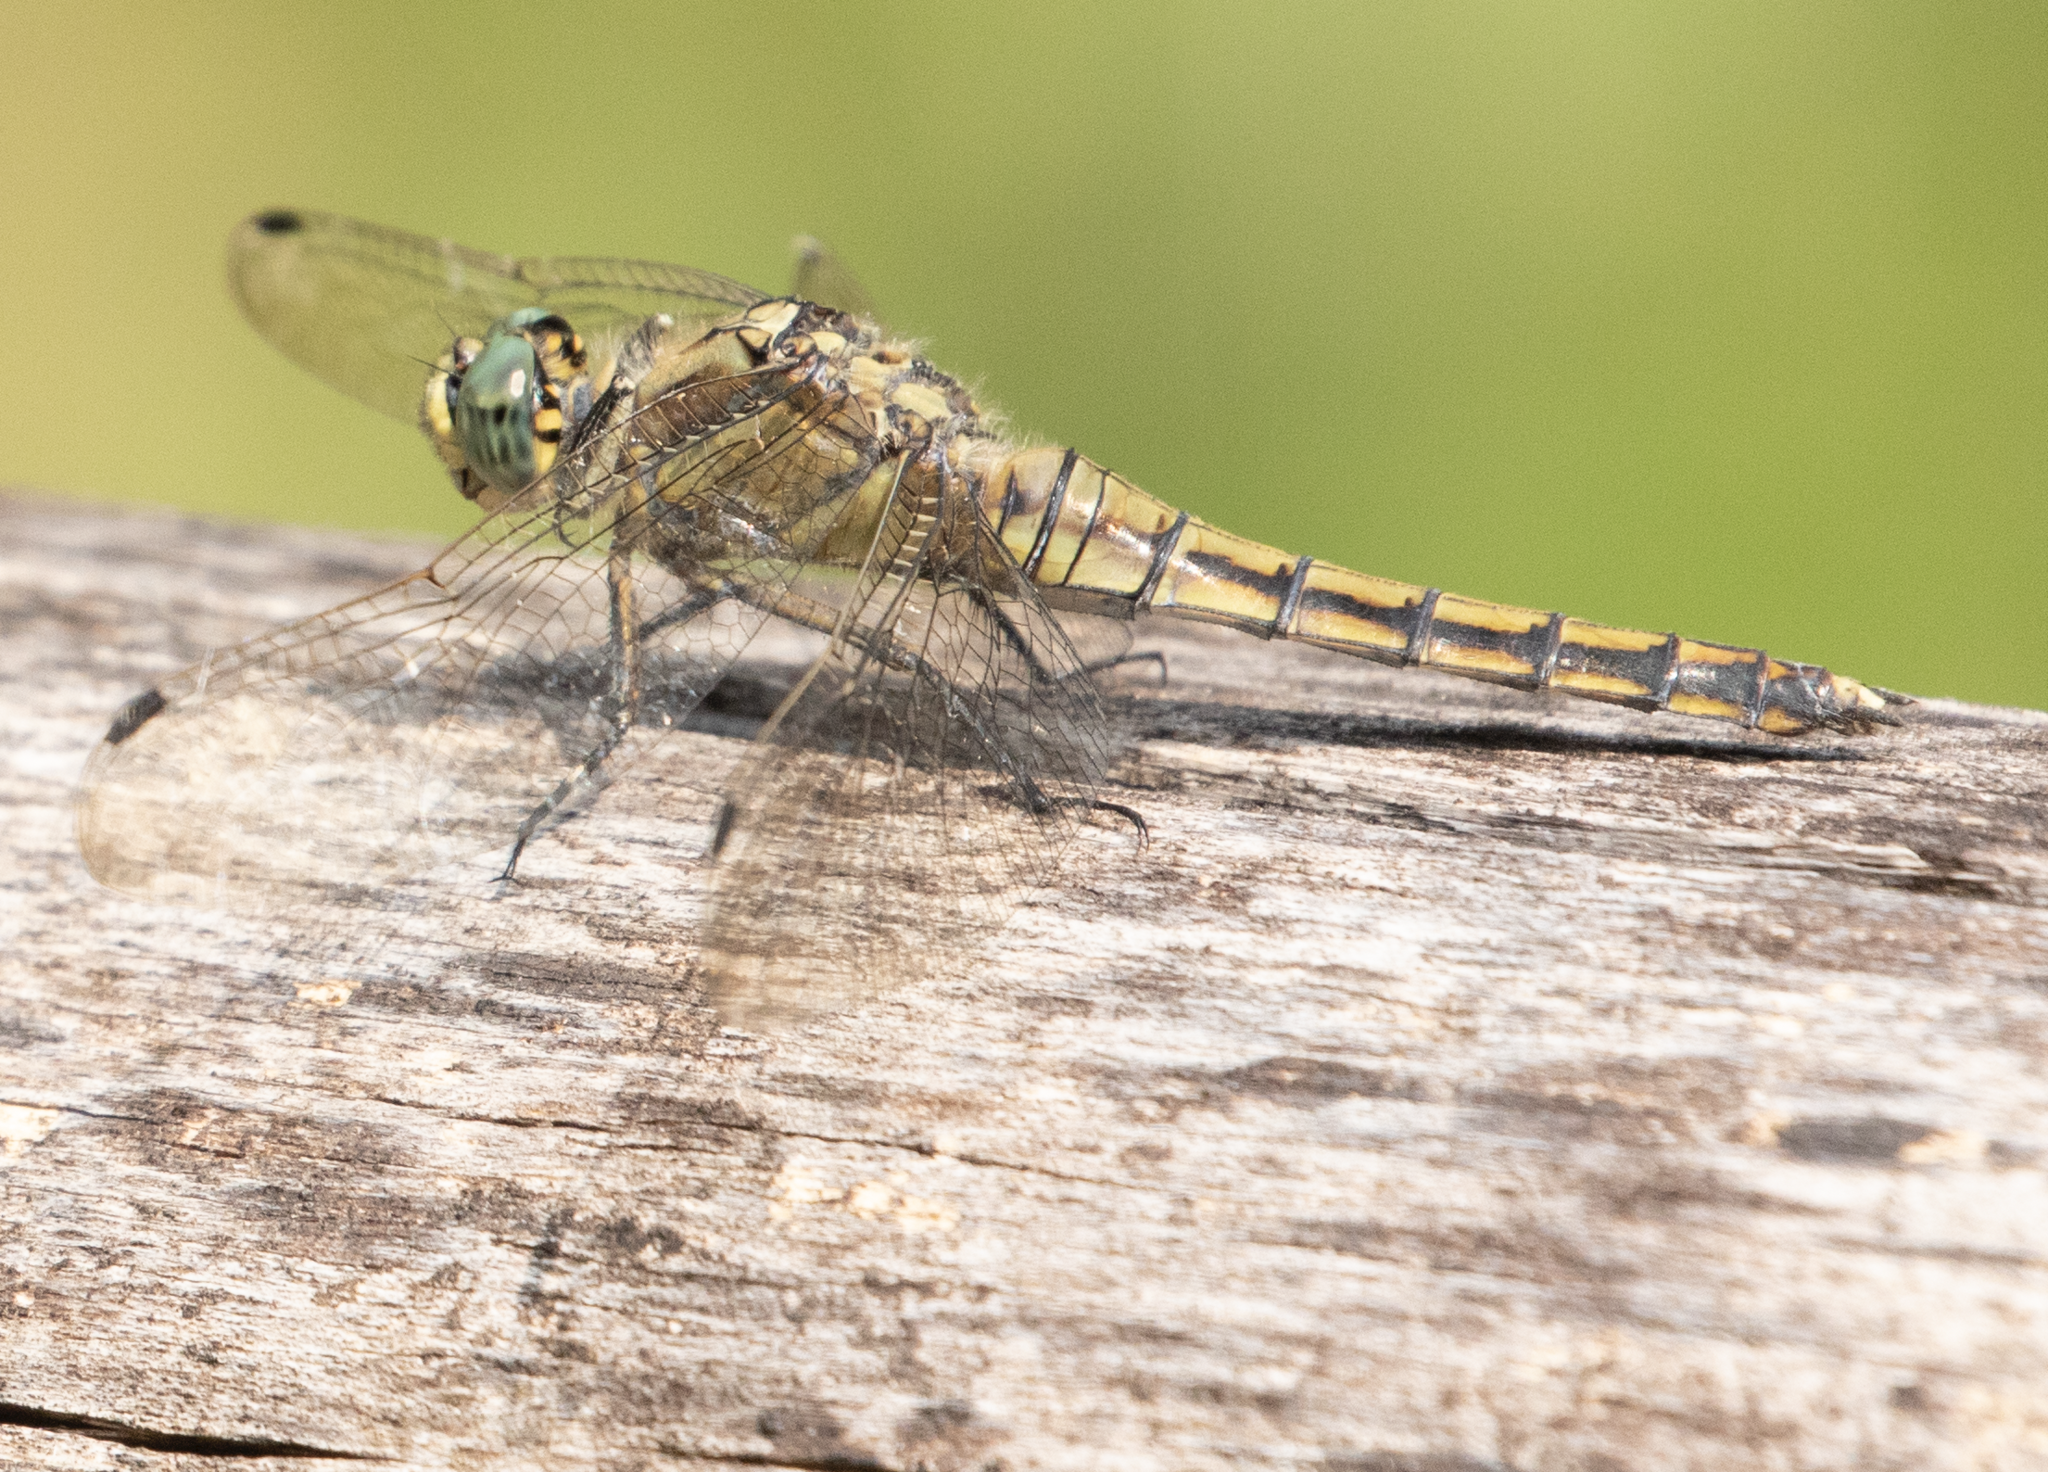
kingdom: Animalia
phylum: Arthropoda
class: Insecta
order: Odonata
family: Libellulidae
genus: Orthetrum
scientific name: Orthetrum cancellatum
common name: Black-tailed skimmer
